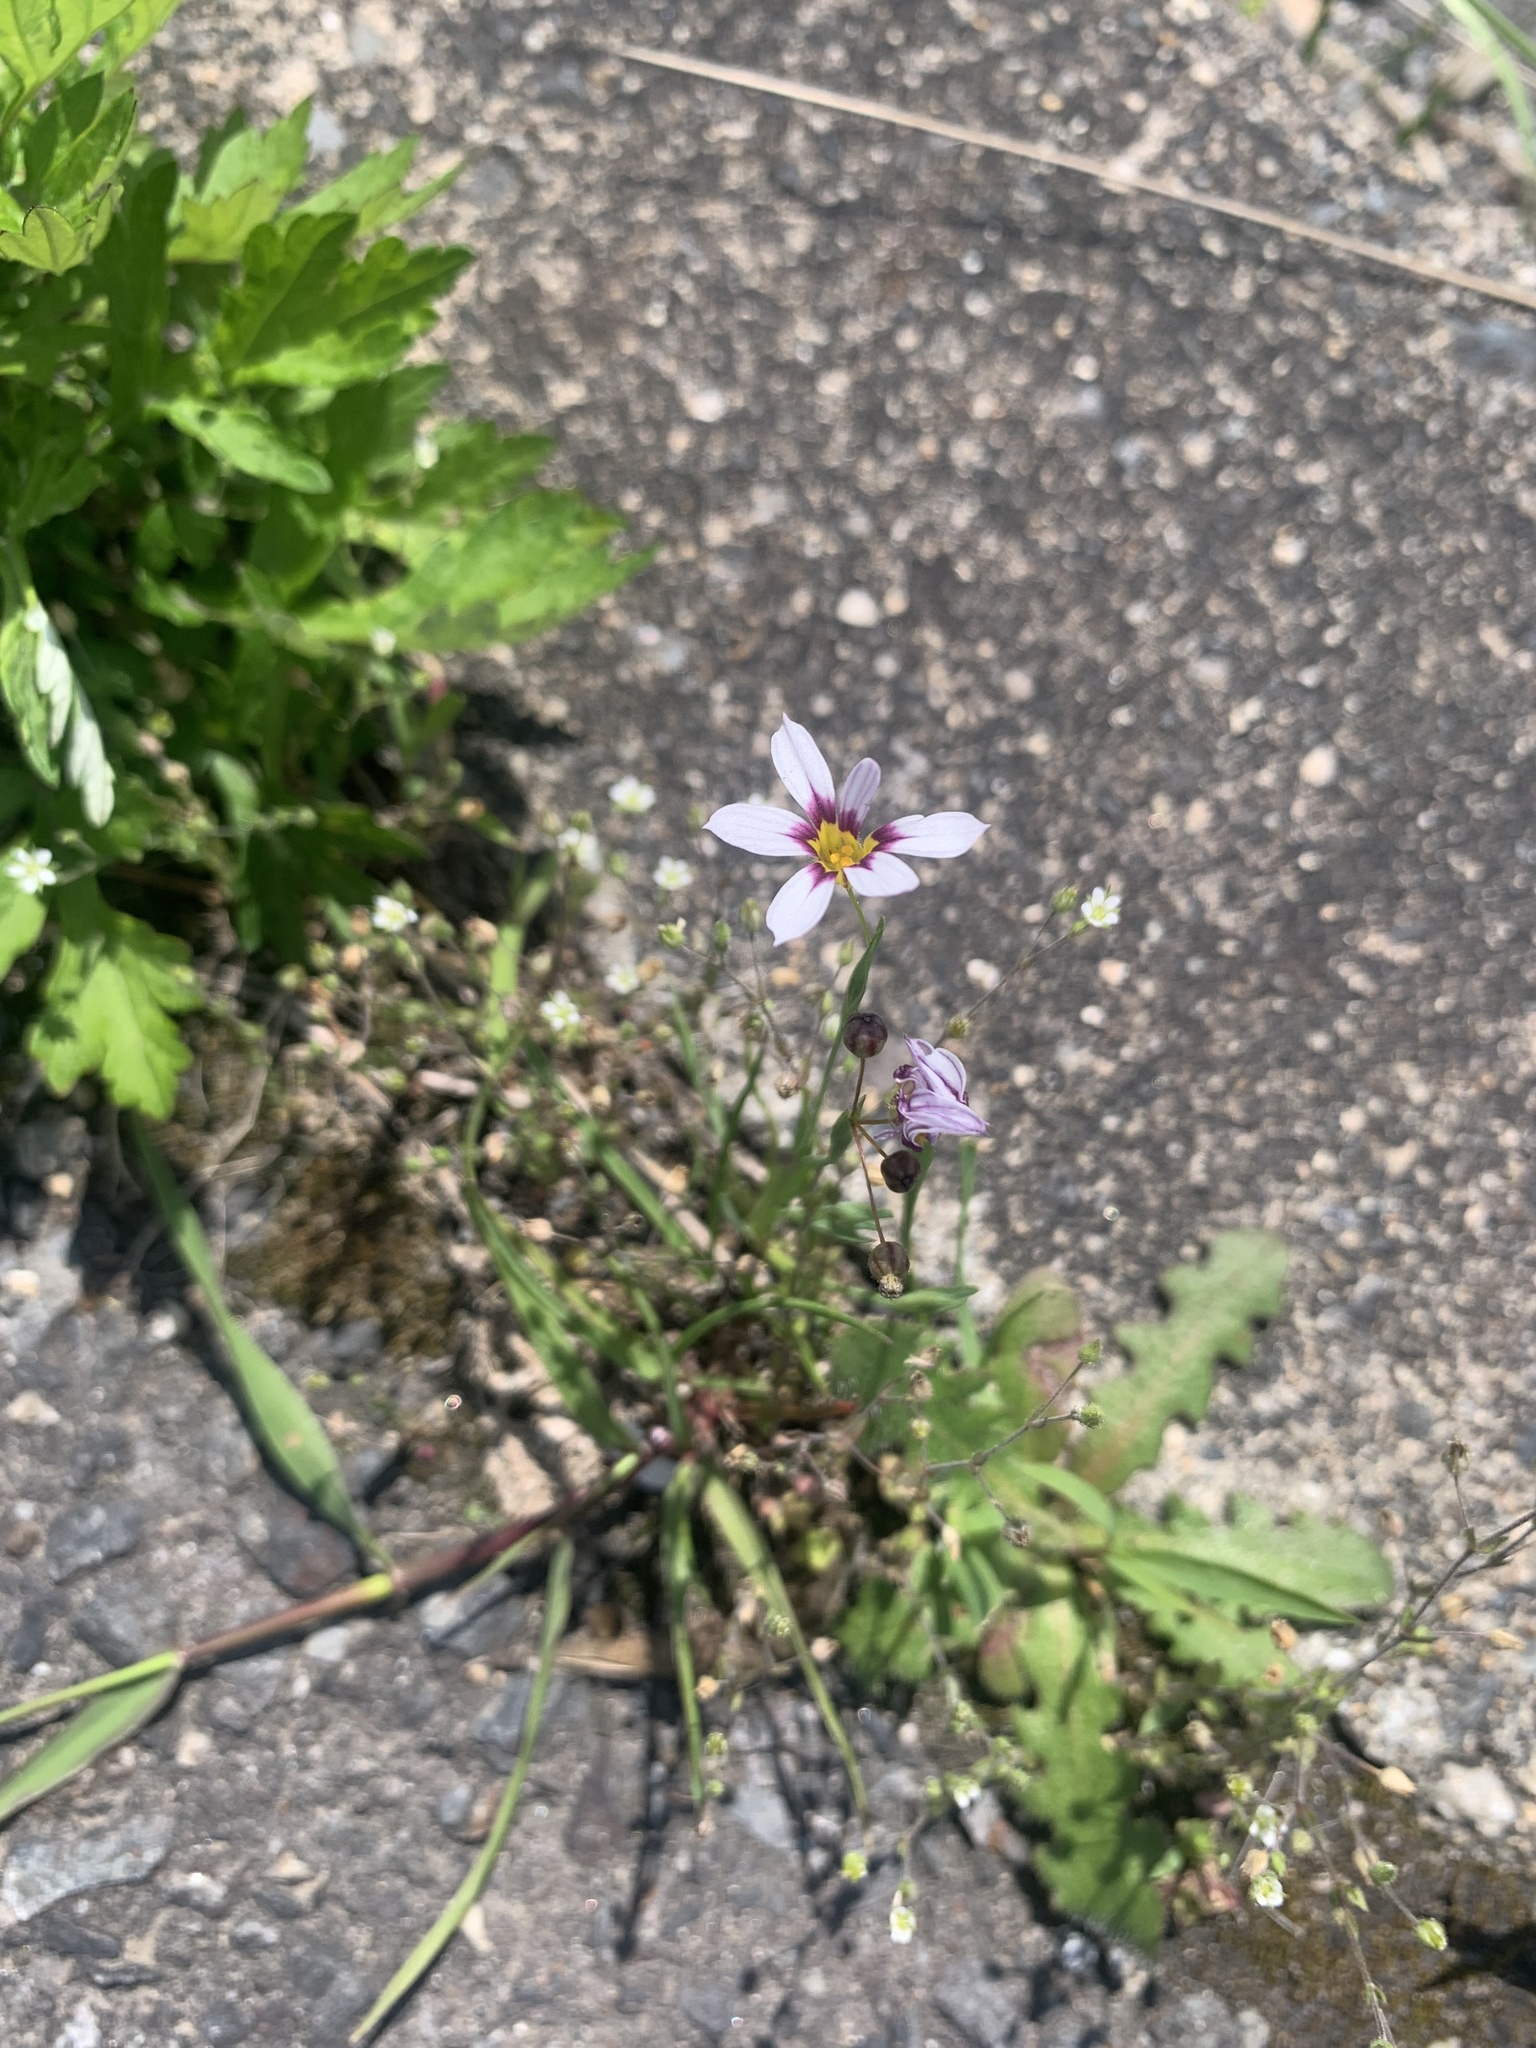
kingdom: Plantae
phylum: Tracheophyta
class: Liliopsida
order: Asparagales
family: Iridaceae
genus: Sisyrinchium
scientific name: Sisyrinchium micranthum
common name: Bermuda pigroot
